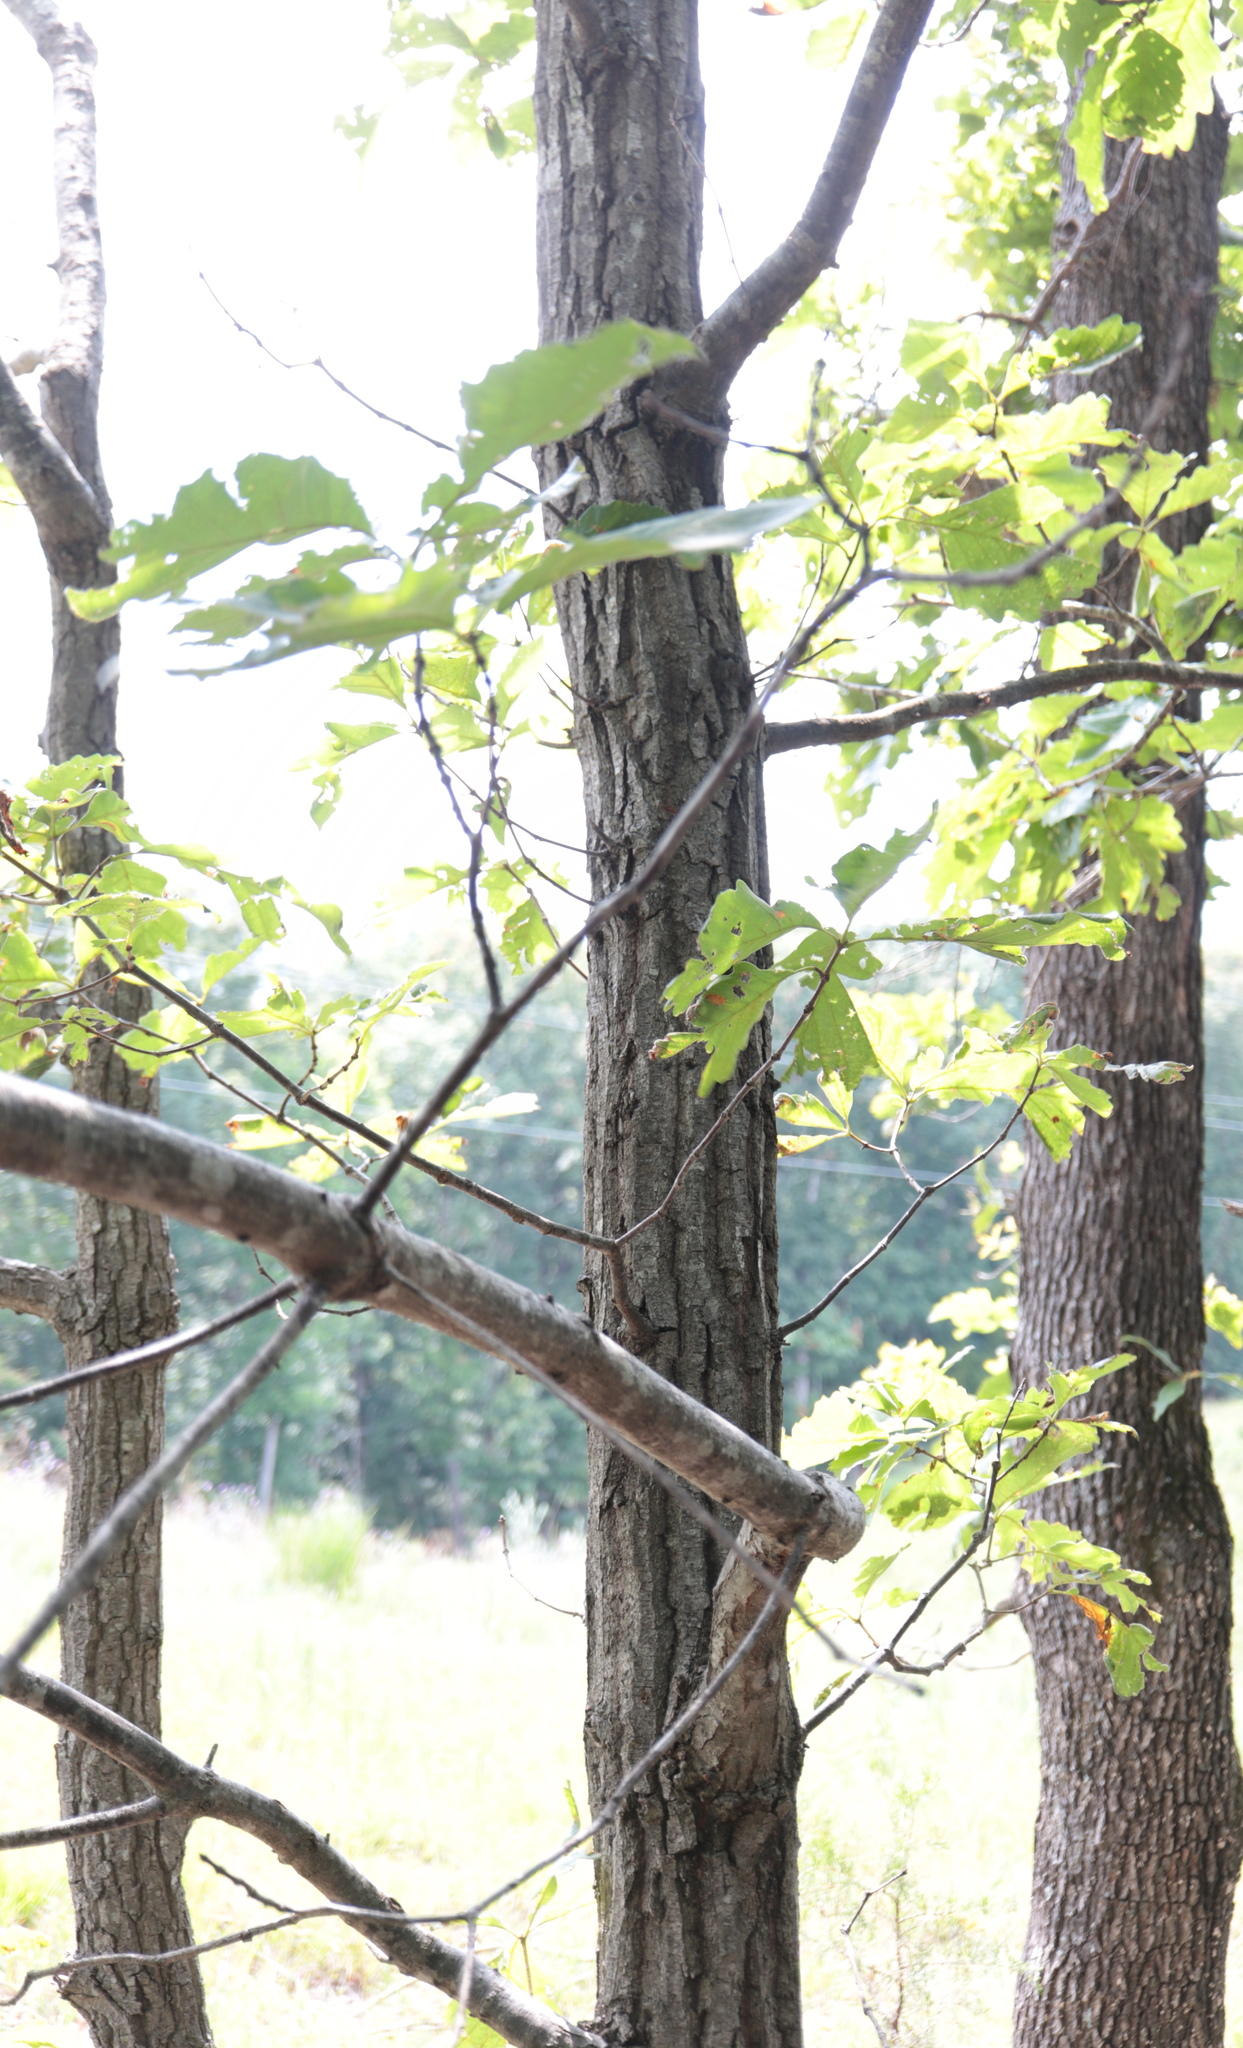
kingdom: Plantae
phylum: Tracheophyta
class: Magnoliopsida
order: Fagales
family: Fagaceae
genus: Quercus
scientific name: Quercus montana
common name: Chestnut oak
